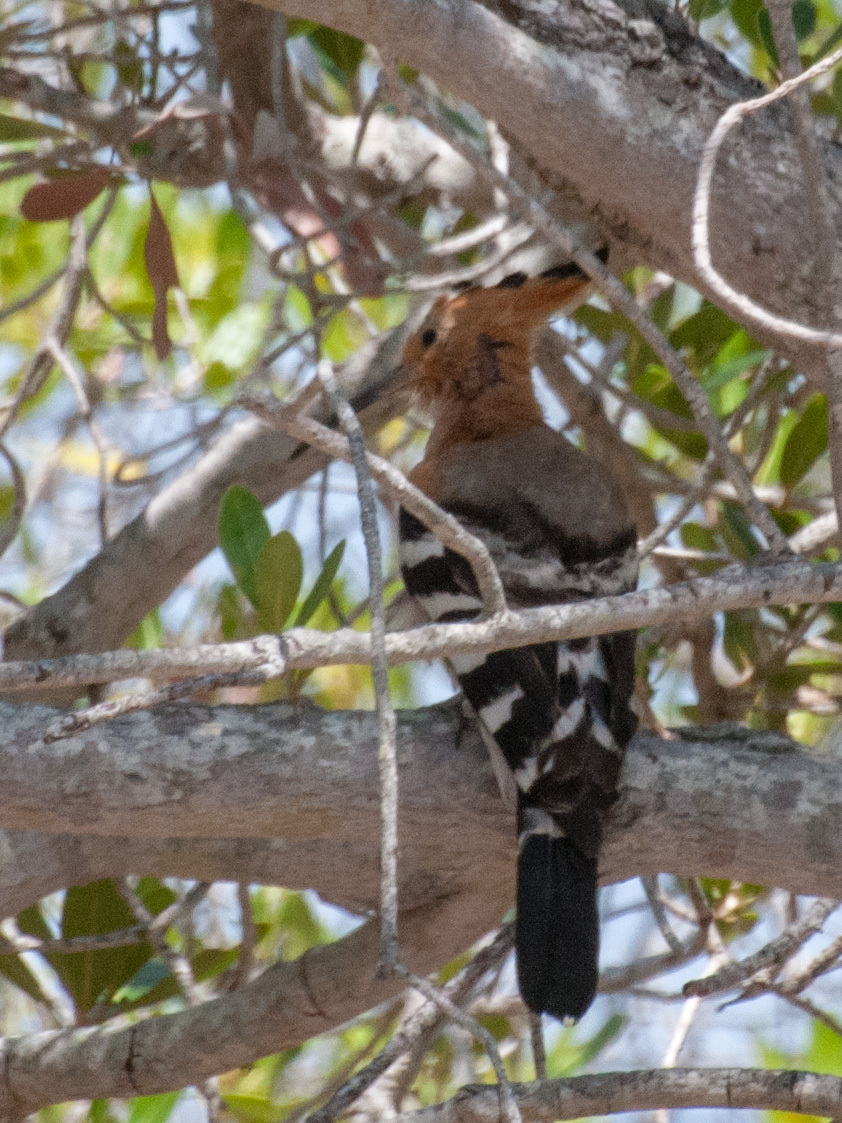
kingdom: Animalia
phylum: Chordata
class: Aves
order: Bucerotiformes
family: Upupidae
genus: Upupa
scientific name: Upupa marginata
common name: Madagascar hoopoe
